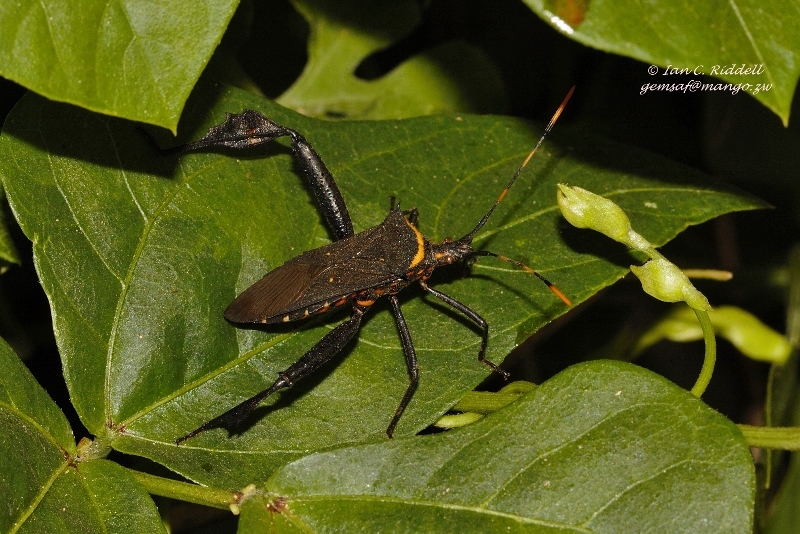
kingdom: Animalia
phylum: Arthropoda
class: Insecta
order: Hemiptera
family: Coreidae
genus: Leptoglossus
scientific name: Leptoglossus gonagra
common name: Citron bug
